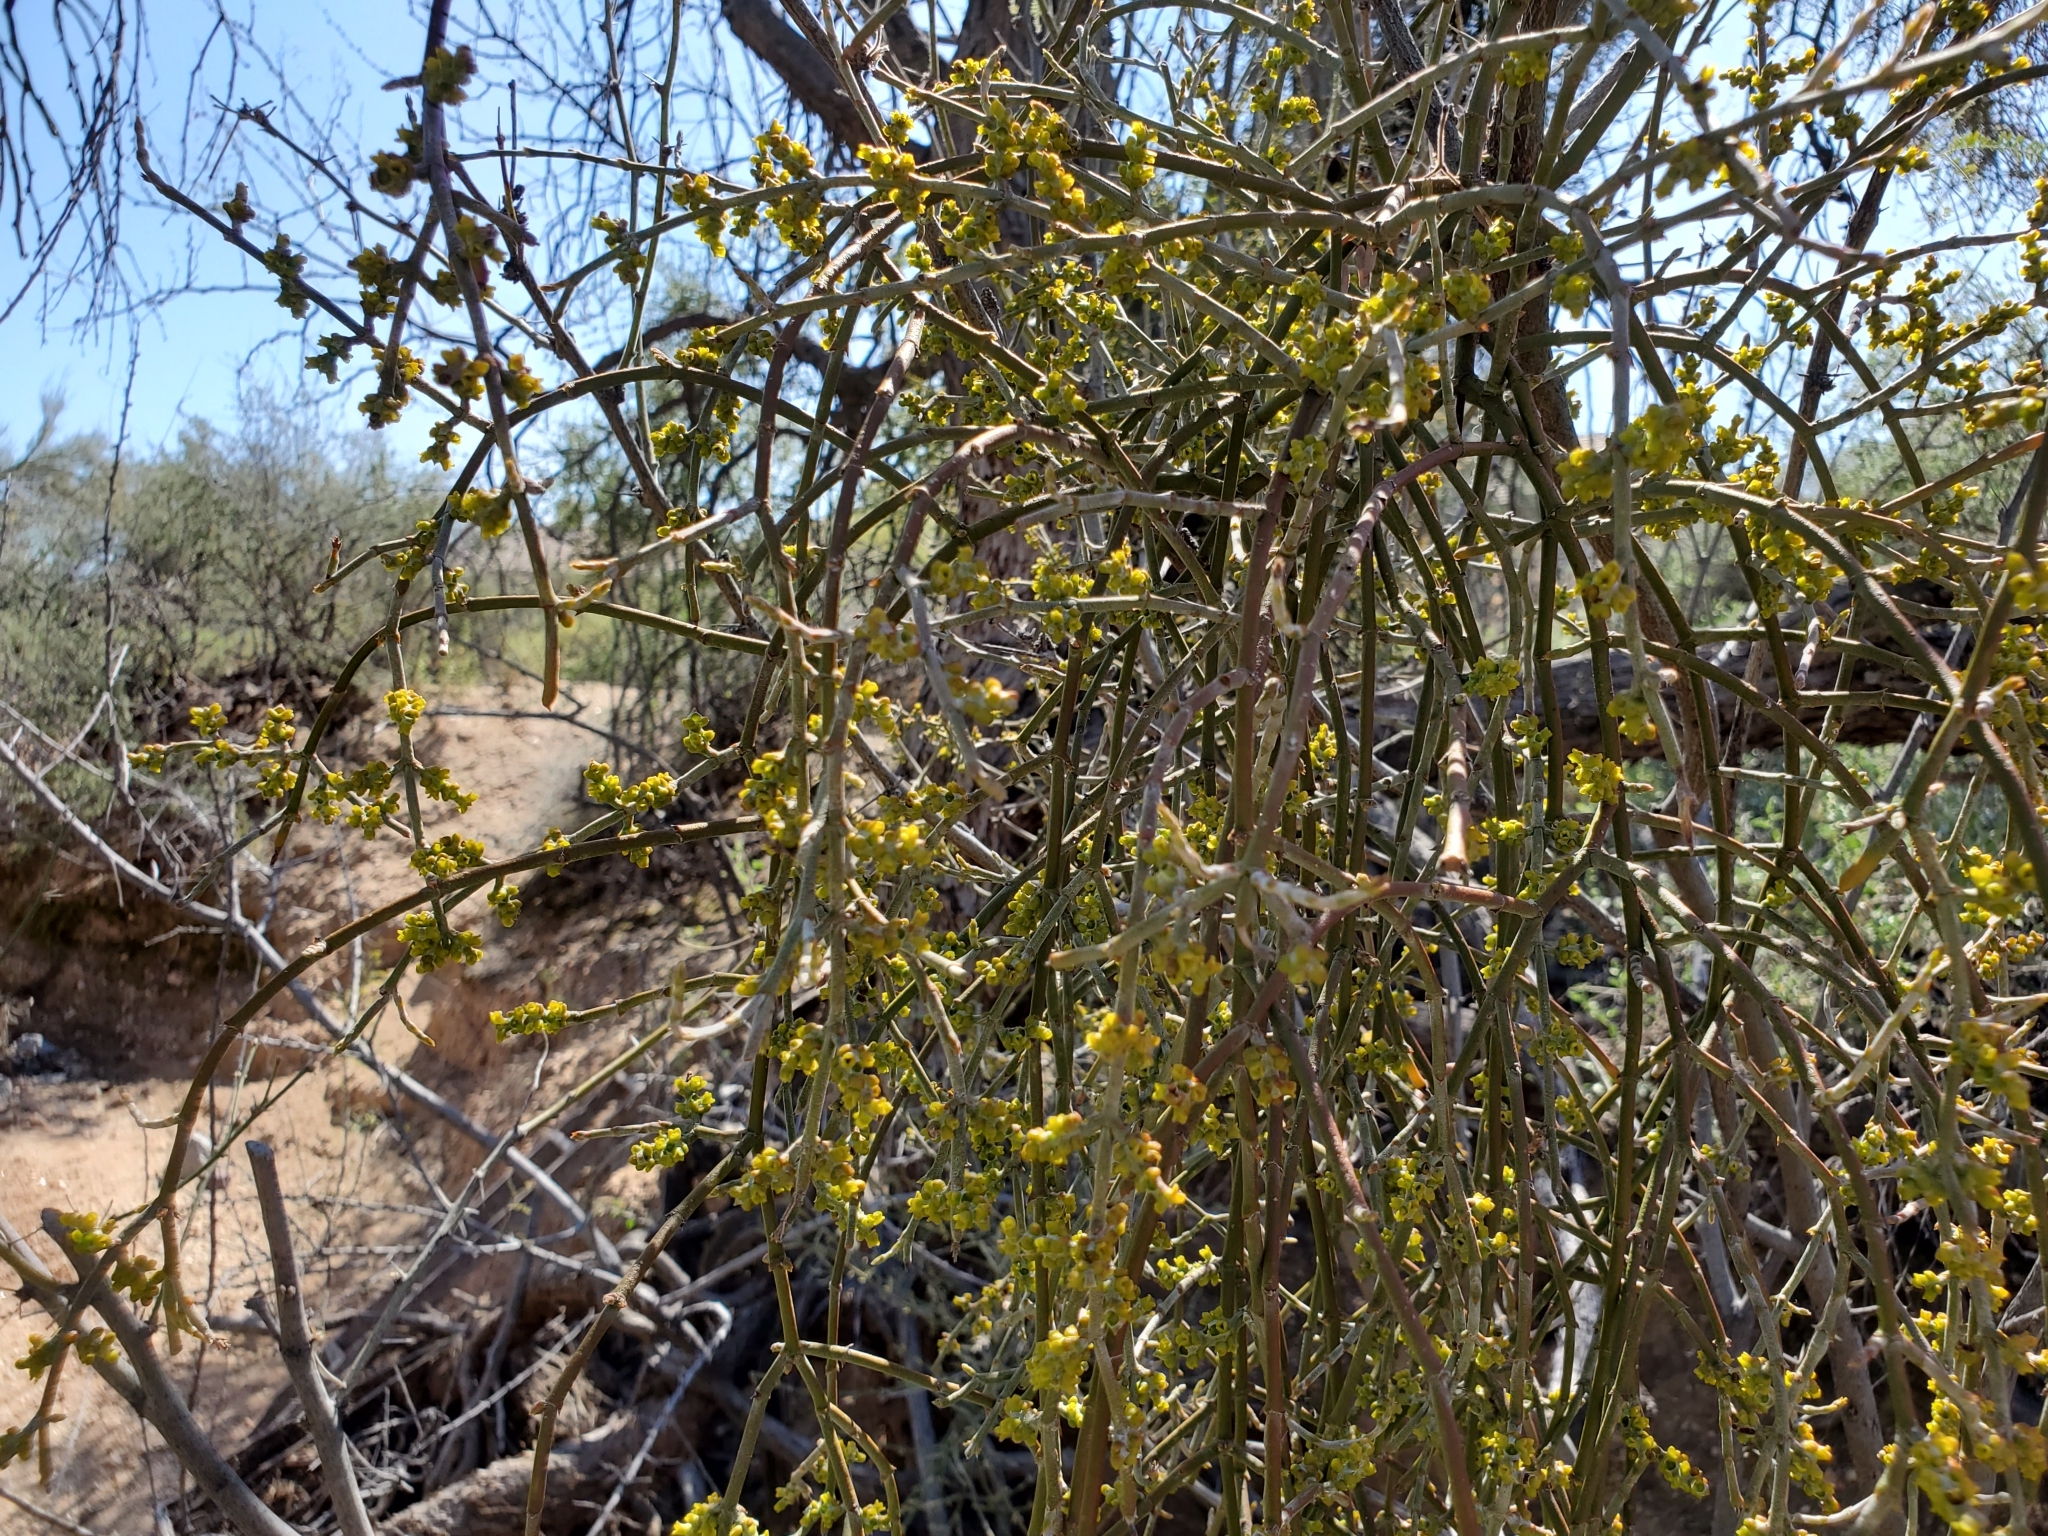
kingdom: Plantae
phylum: Tracheophyta
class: Magnoliopsida
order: Santalales
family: Viscaceae
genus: Phoradendron
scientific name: Phoradendron californicum
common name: Acacia mistletoe
